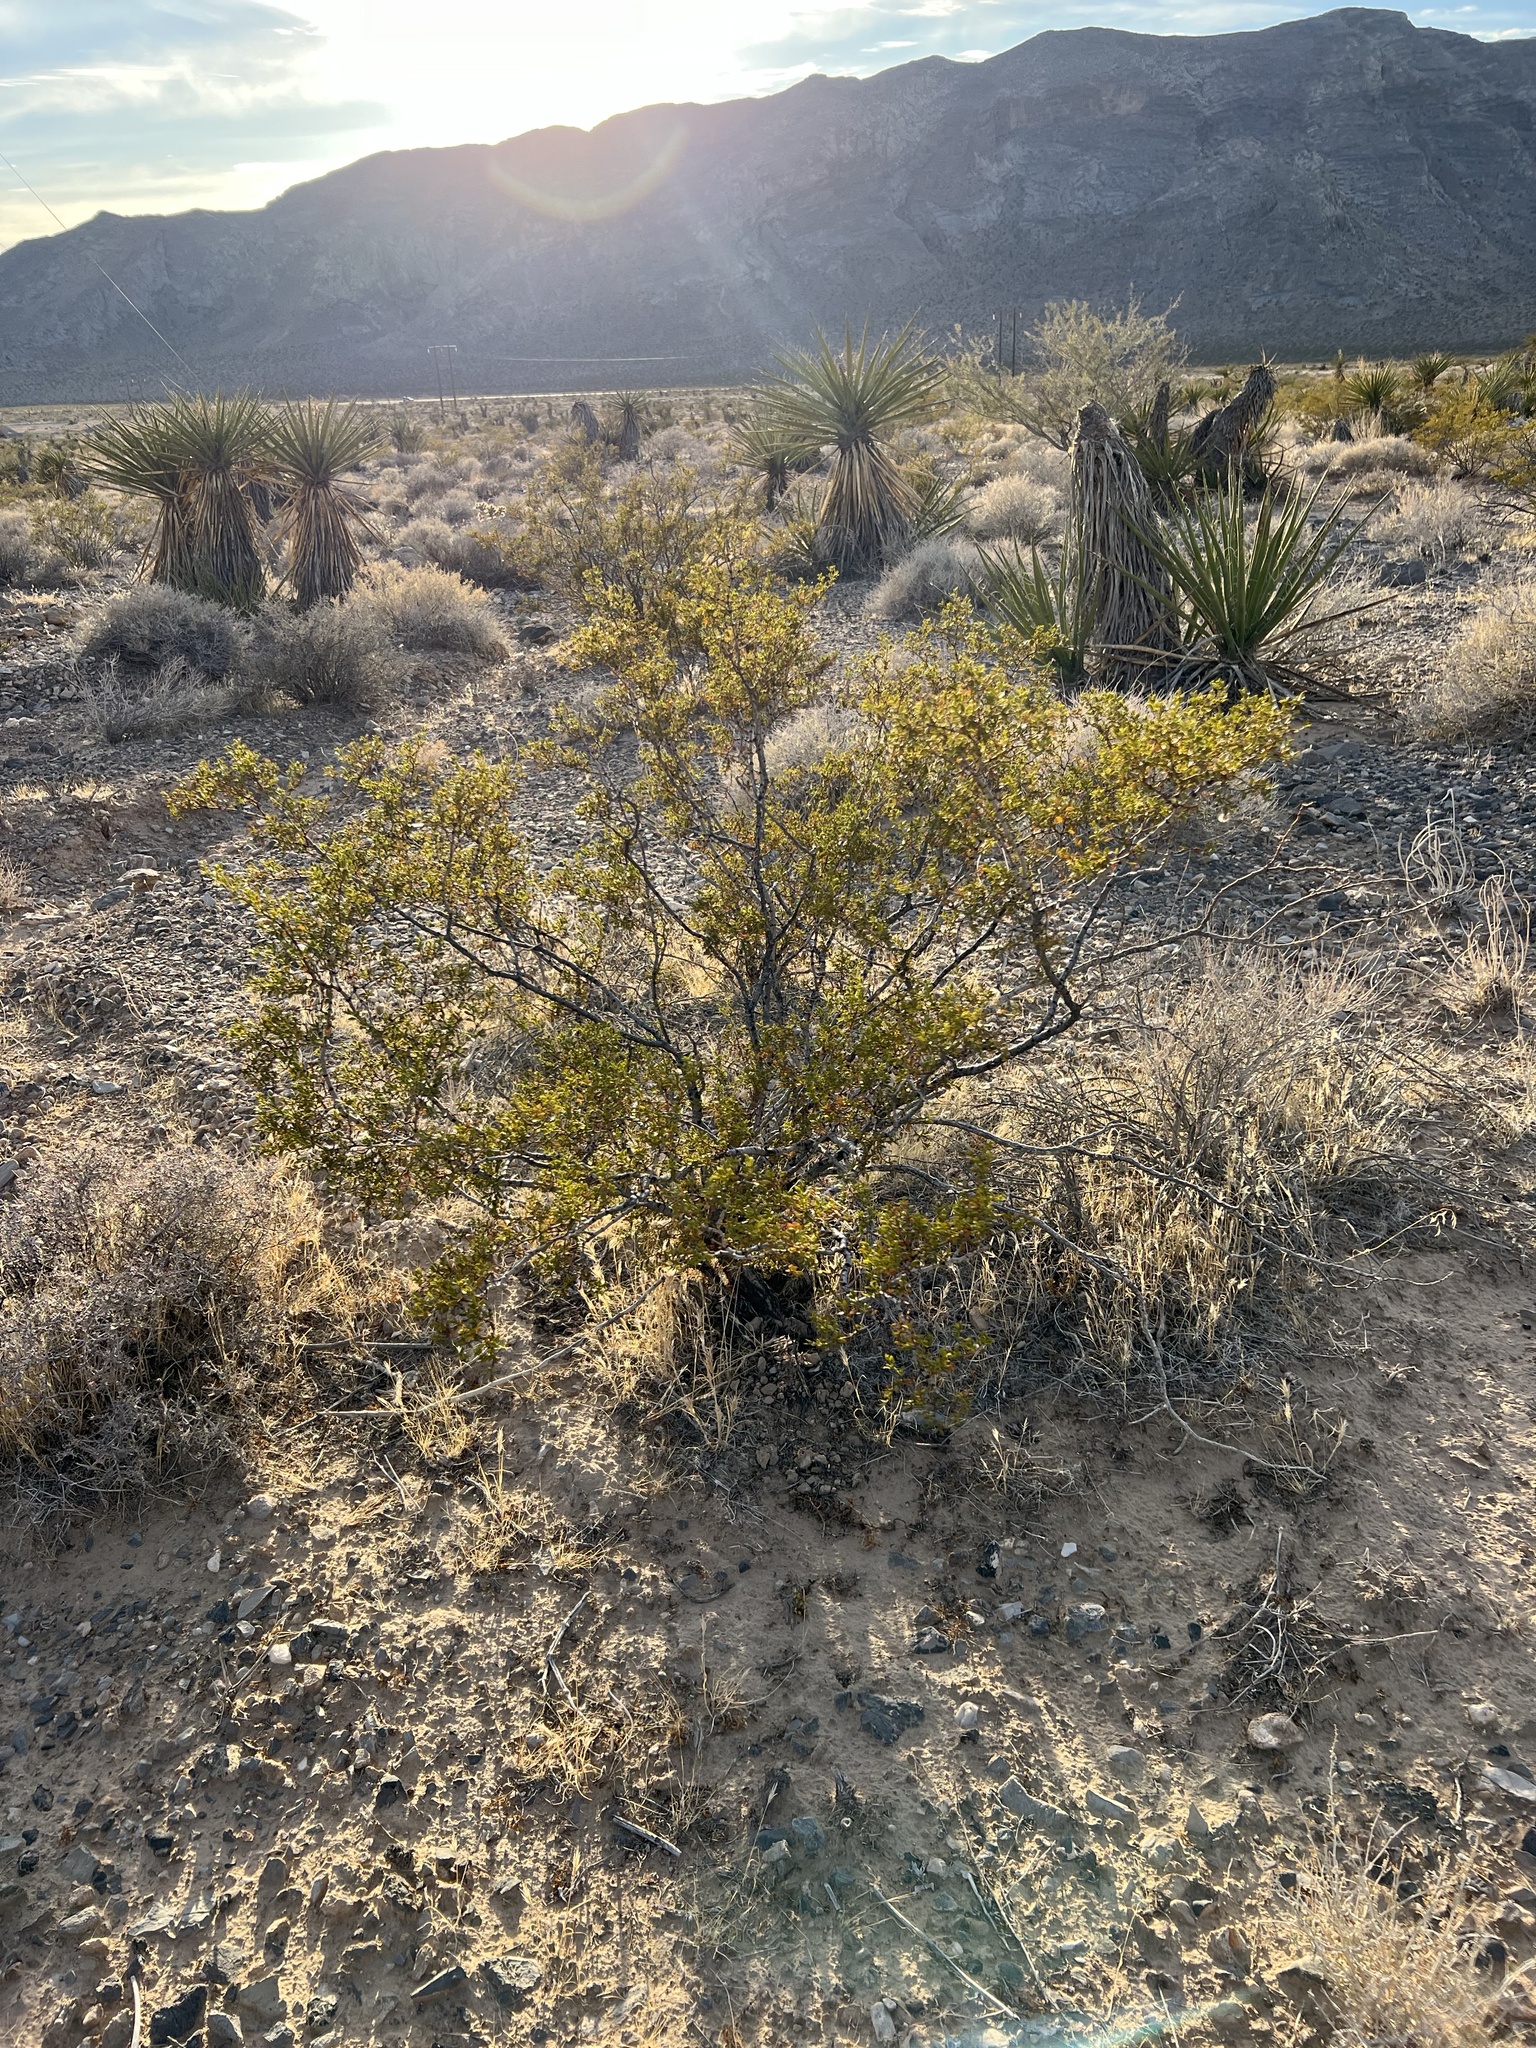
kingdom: Plantae
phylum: Tracheophyta
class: Magnoliopsida
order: Zygophyllales
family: Zygophyllaceae
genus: Larrea
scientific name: Larrea tridentata
